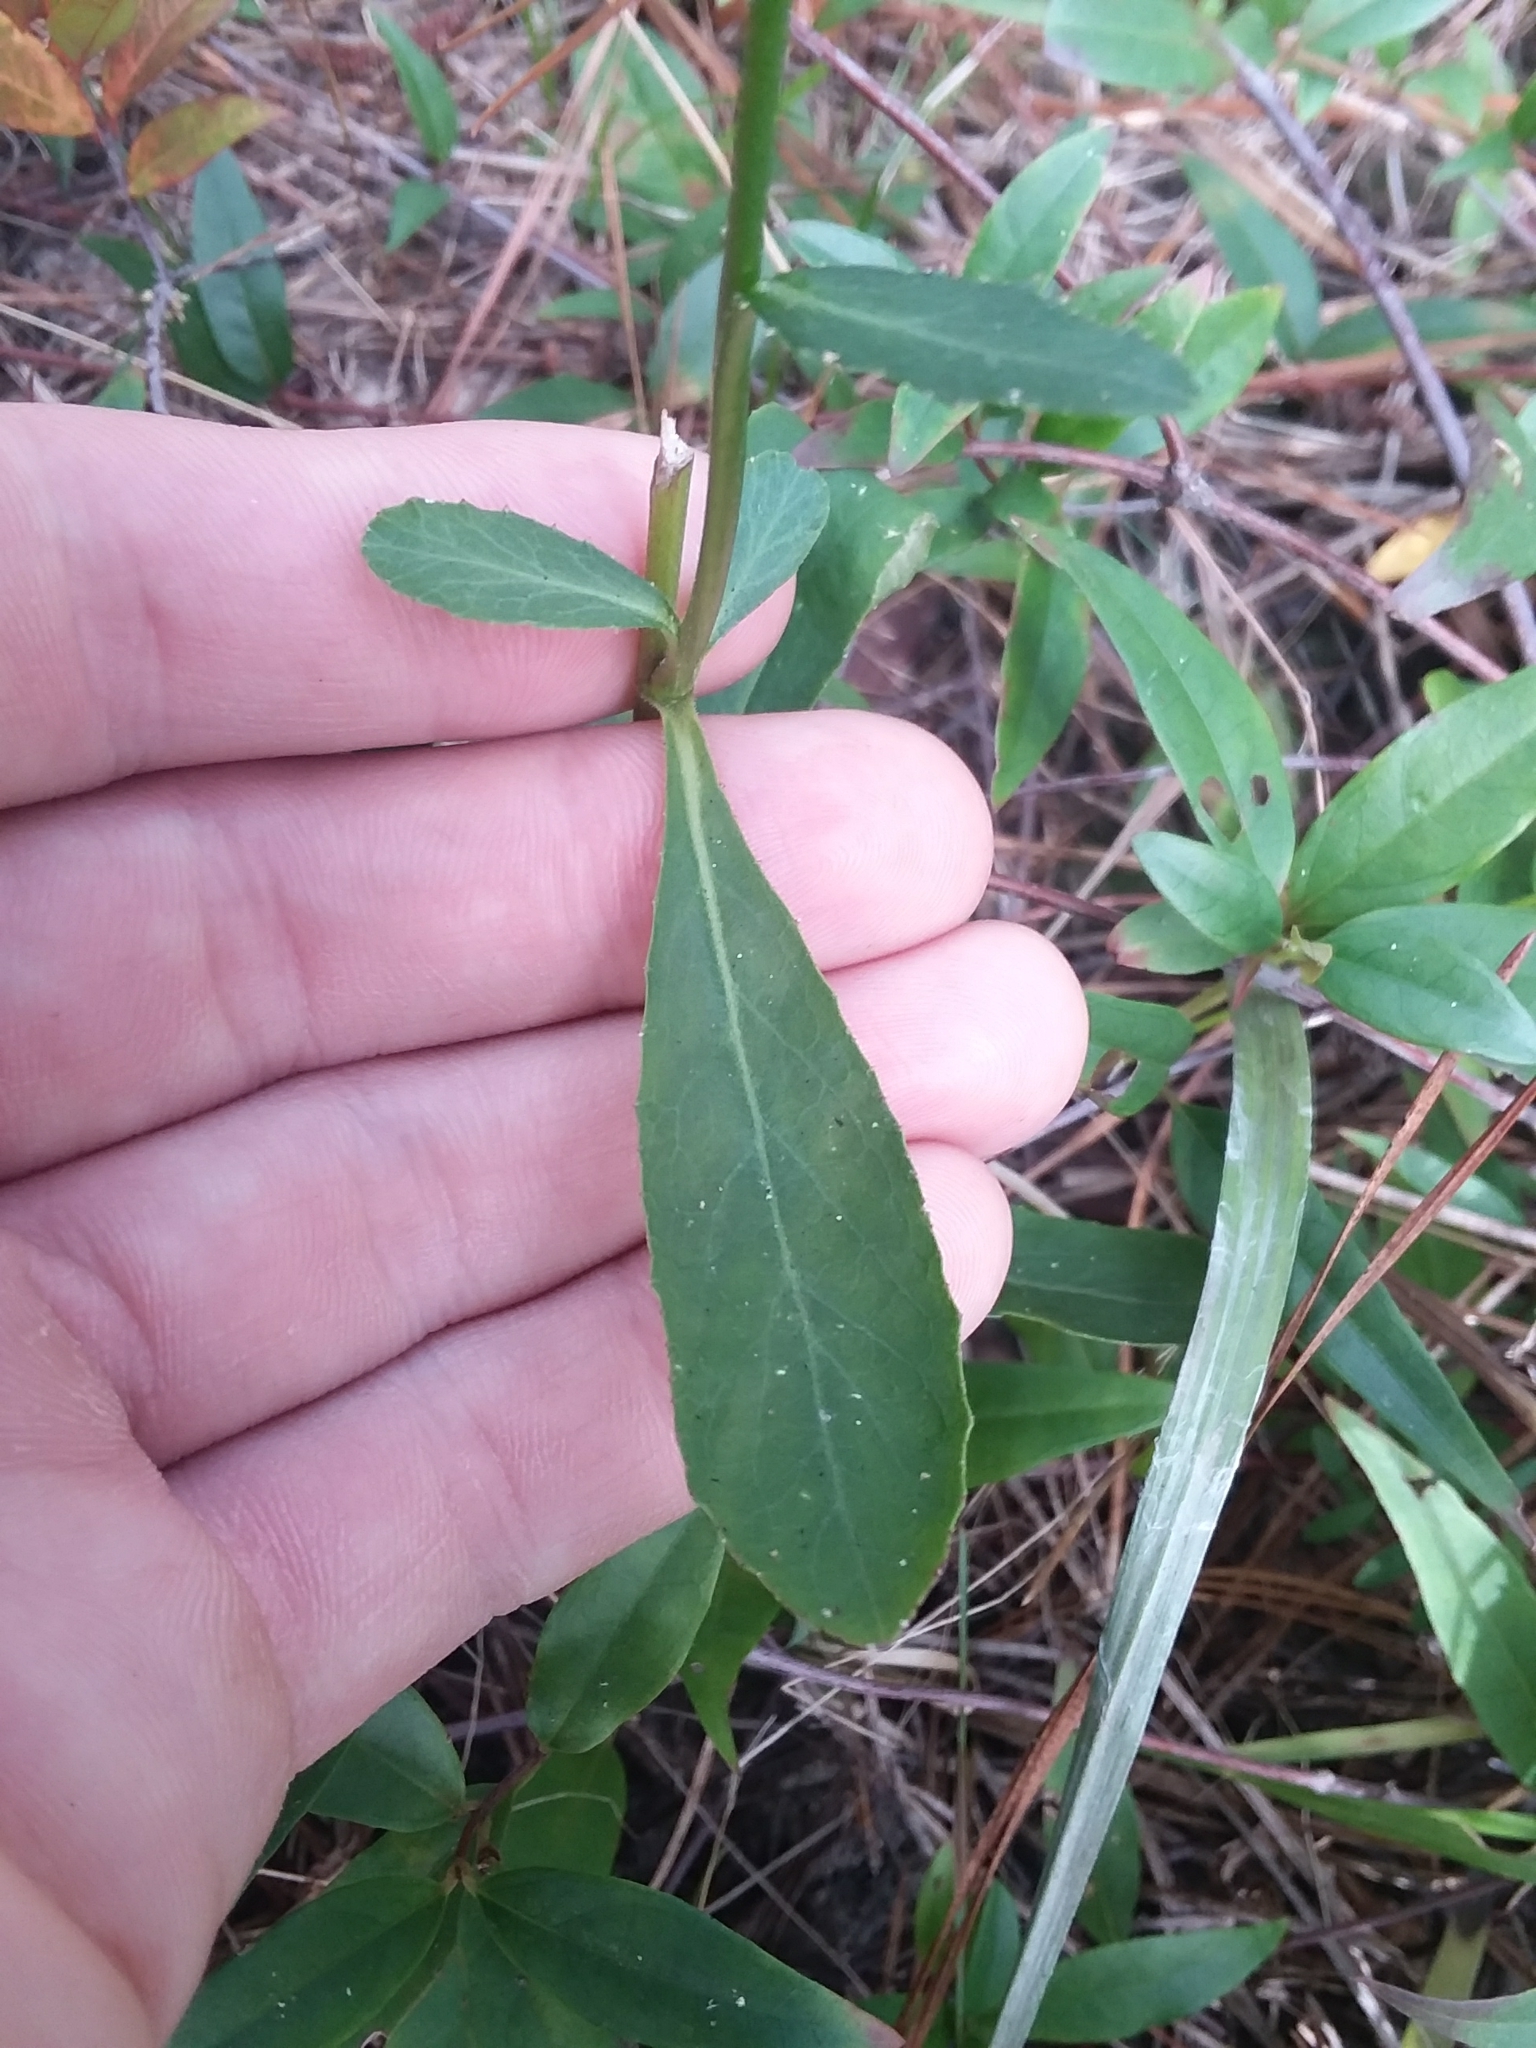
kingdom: Plantae
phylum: Tracheophyta
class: Magnoliopsida
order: Asterales
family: Campanulaceae
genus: Lobelia
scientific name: Lobelia puberula
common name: Purple dewdrop
